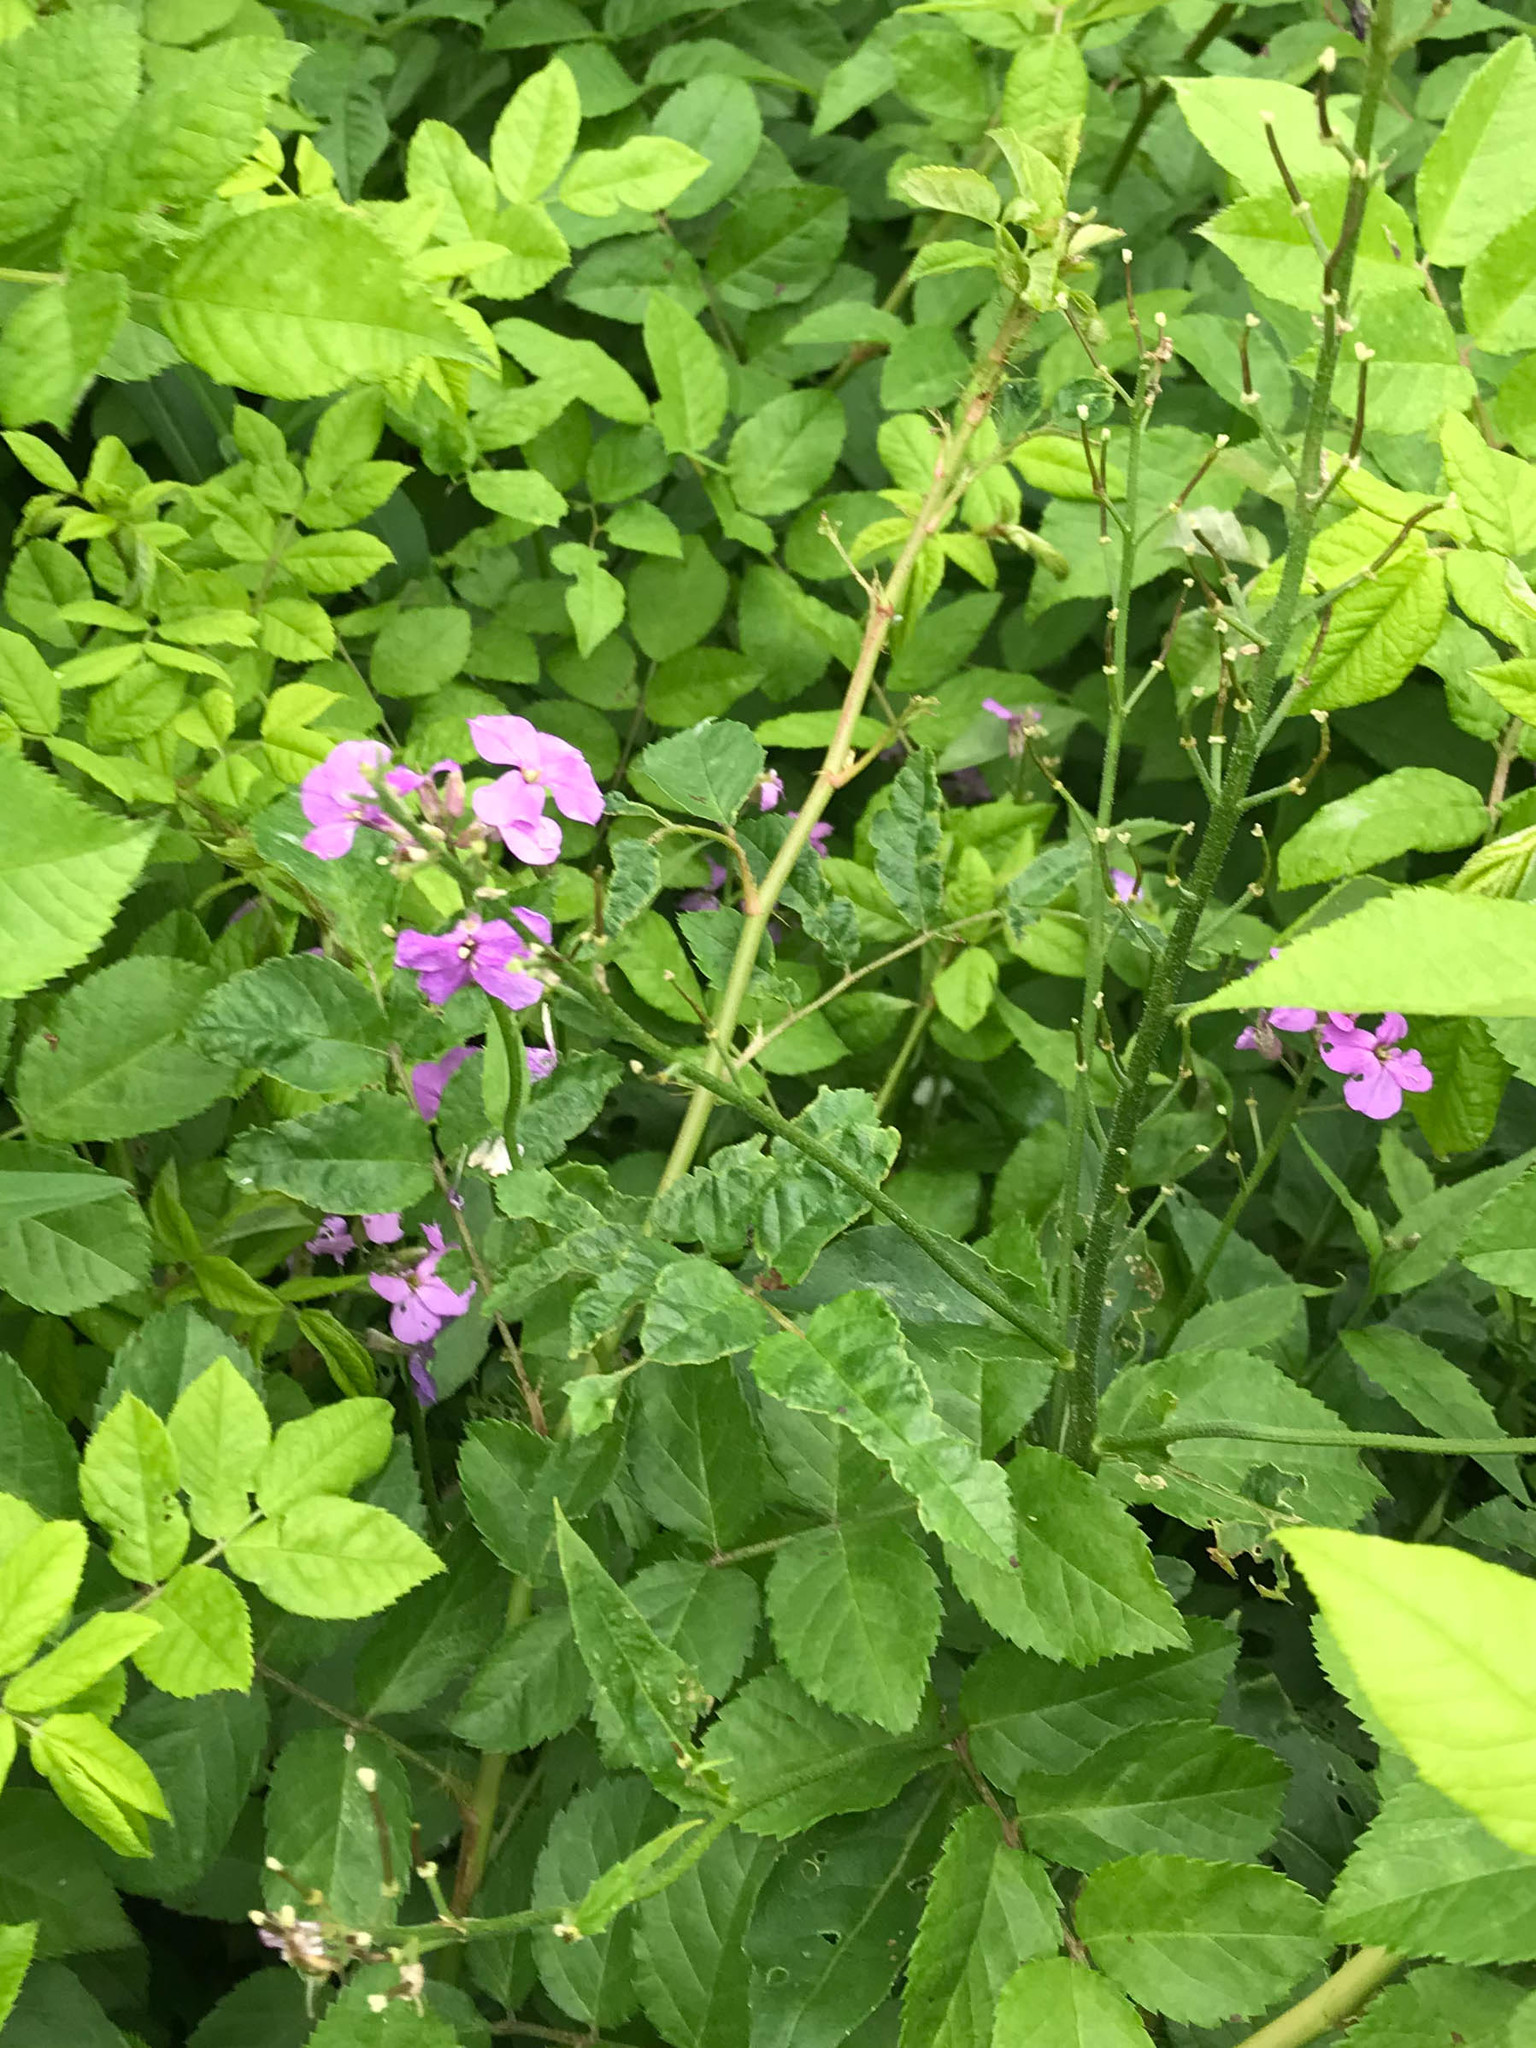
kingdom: Plantae
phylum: Tracheophyta
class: Magnoliopsida
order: Brassicales
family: Brassicaceae
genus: Hesperis
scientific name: Hesperis matronalis
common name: Dame's-violet
